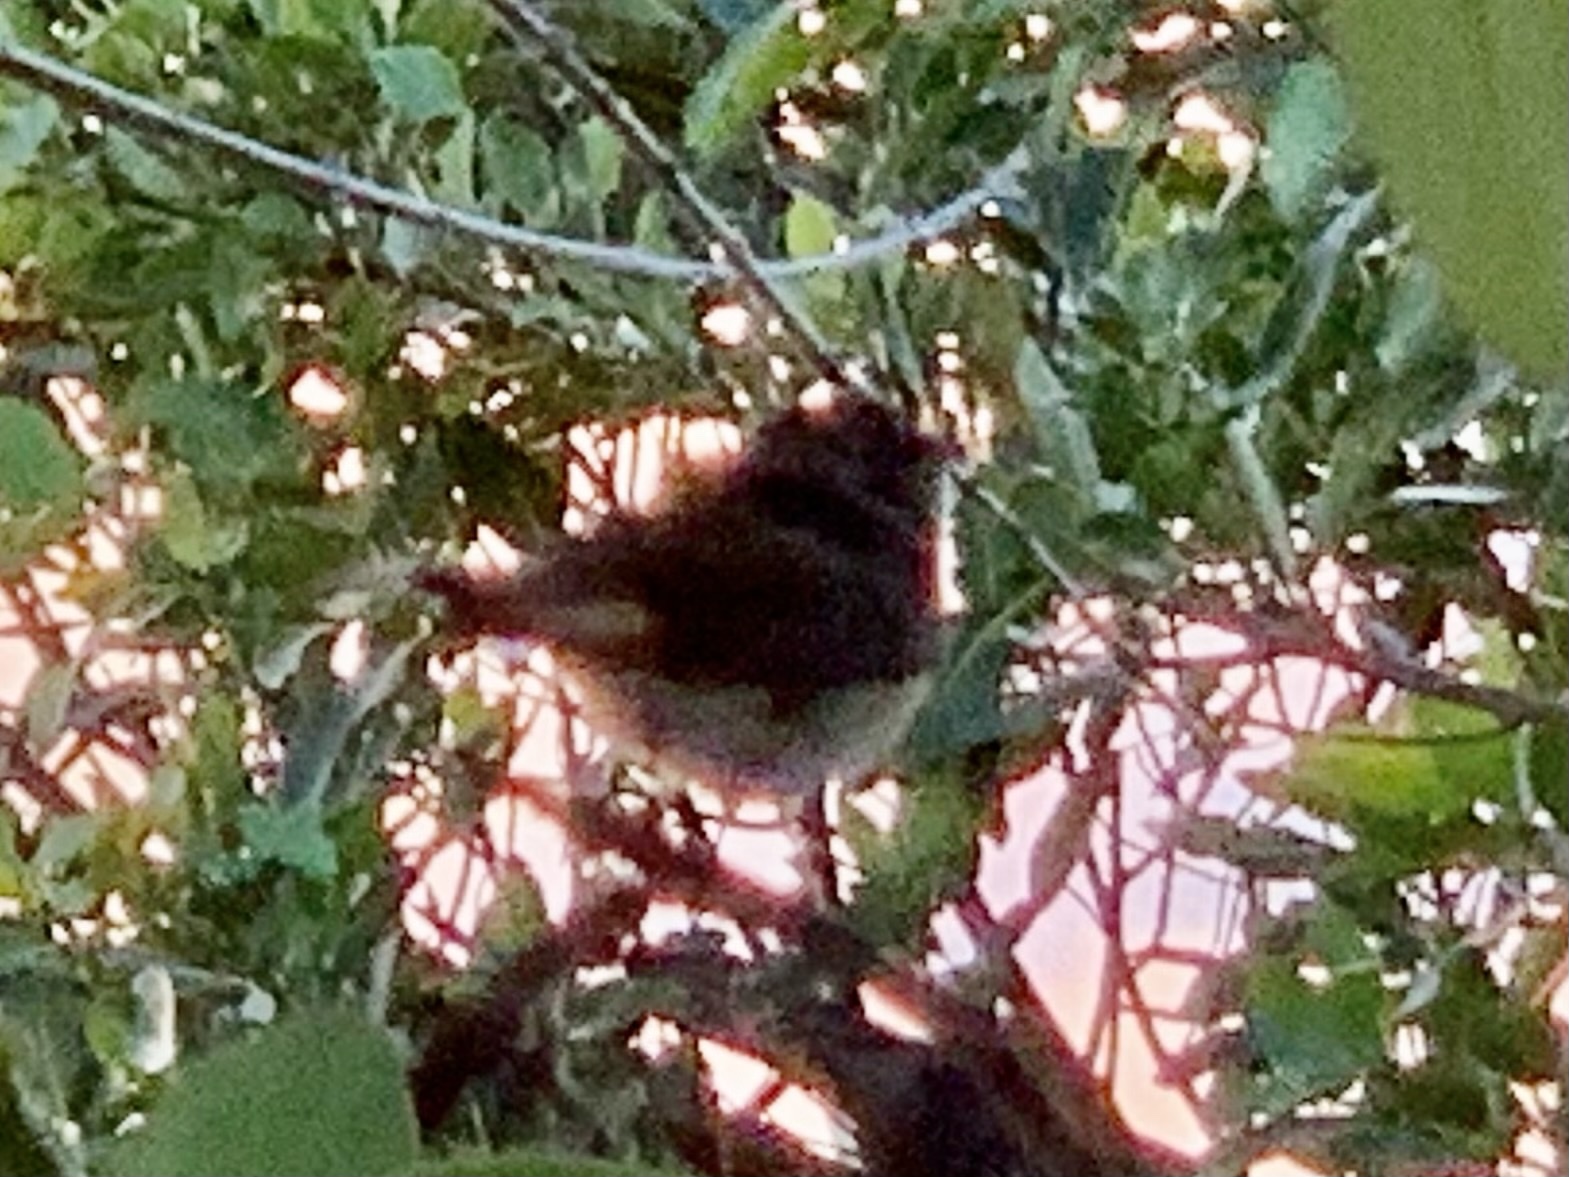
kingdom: Animalia
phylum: Chordata
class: Aves
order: Passeriformes
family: Parulidae
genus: Setophaga
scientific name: Setophaga ruticilla
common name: American redstart
